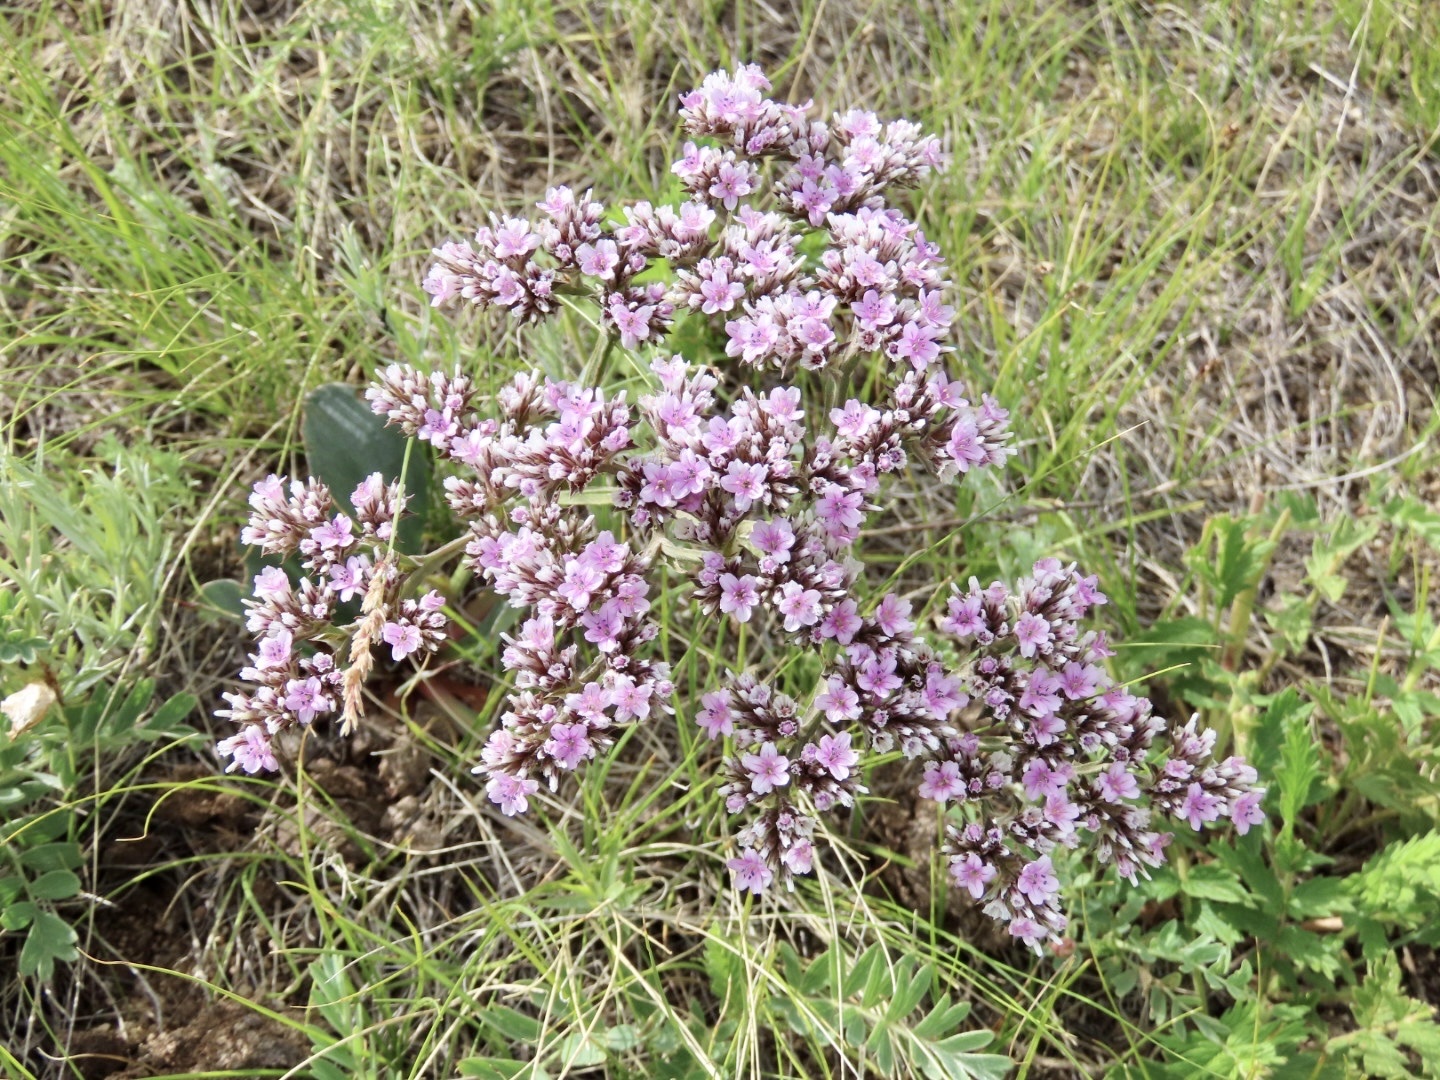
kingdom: Plantae
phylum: Tracheophyta
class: Magnoliopsida
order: Caryophyllales
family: Plumbaginaceae
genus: Goniolimon
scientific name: Goniolimon speciosum
